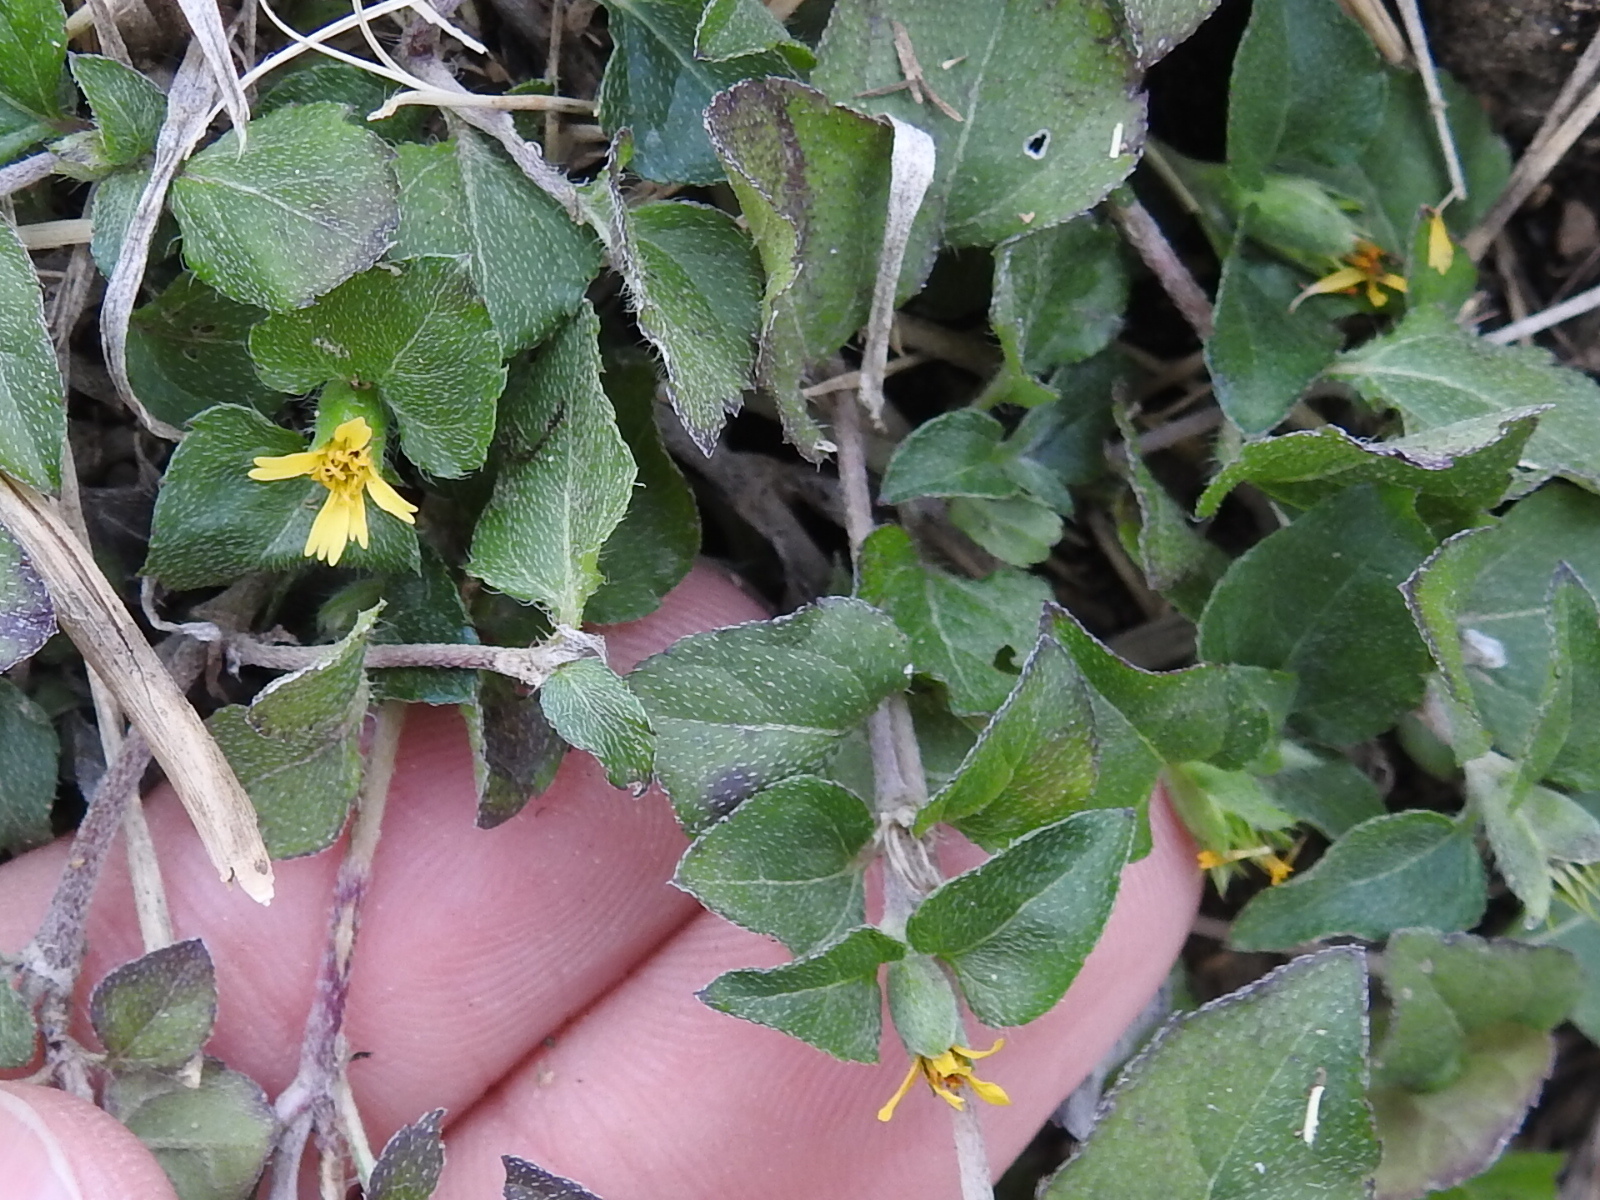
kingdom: Plantae
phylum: Tracheophyta
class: Magnoliopsida
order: Asterales
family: Asteraceae
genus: Calyptocarpus
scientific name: Calyptocarpus vialis
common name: Straggler daisy
